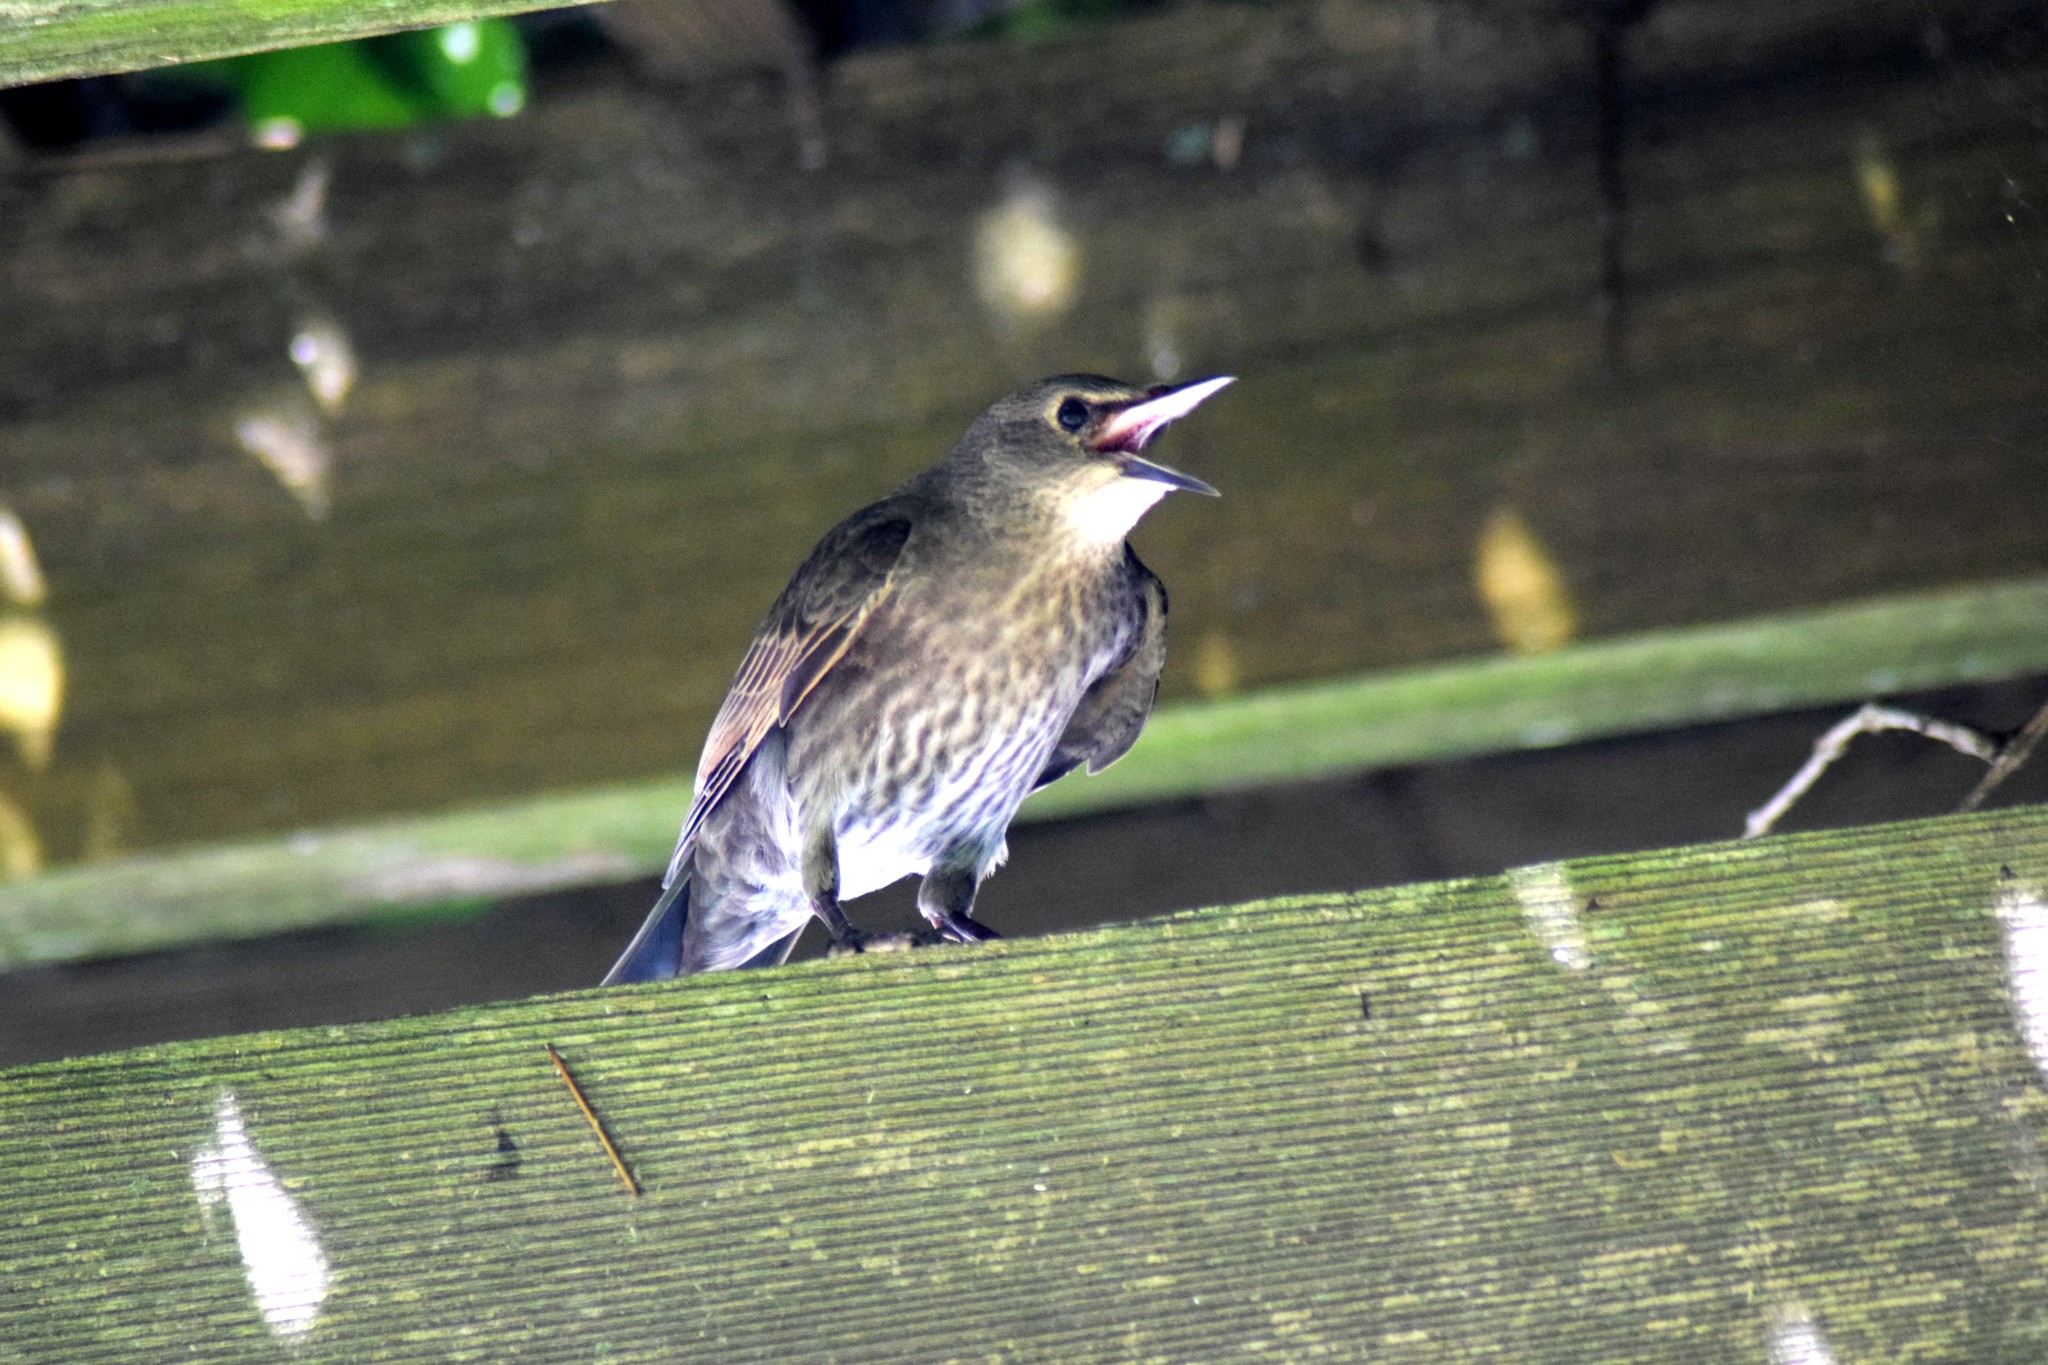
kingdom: Animalia
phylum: Chordata
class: Aves
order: Passeriformes
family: Sturnidae
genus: Sturnus
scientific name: Sturnus vulgaris
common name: Common starling
